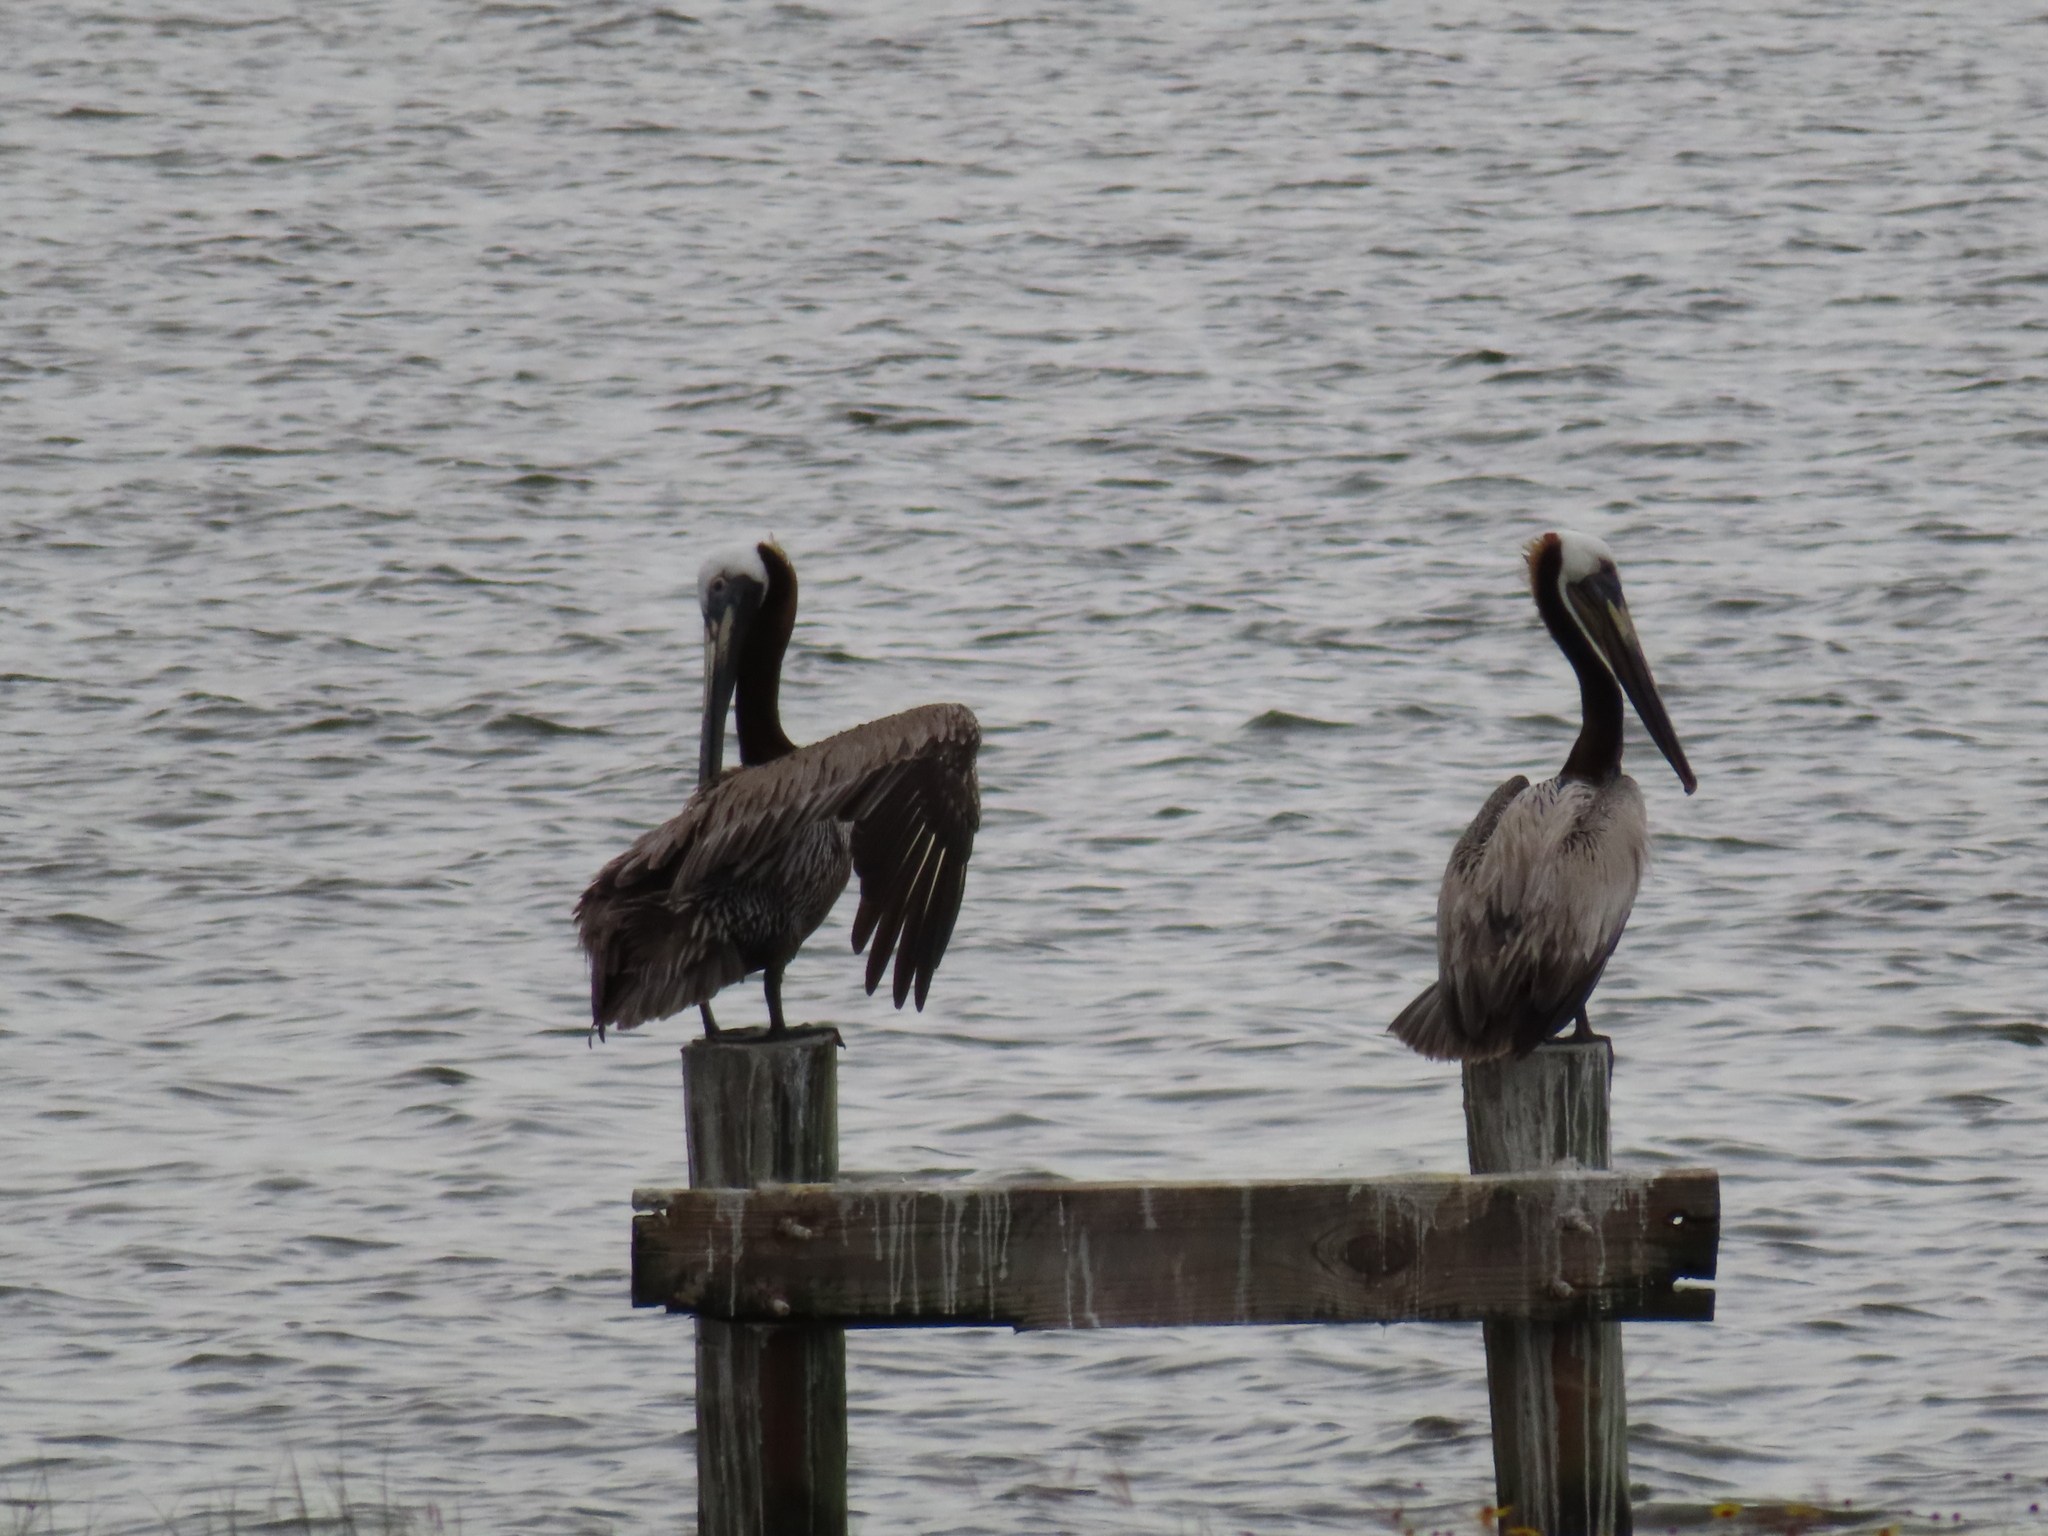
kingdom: Animalia
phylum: Chordata
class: Aves
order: Pelecaniformes
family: Pelecanidae
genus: Pelecanus
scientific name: Pelecanus occidentalis
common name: Brown pelican
